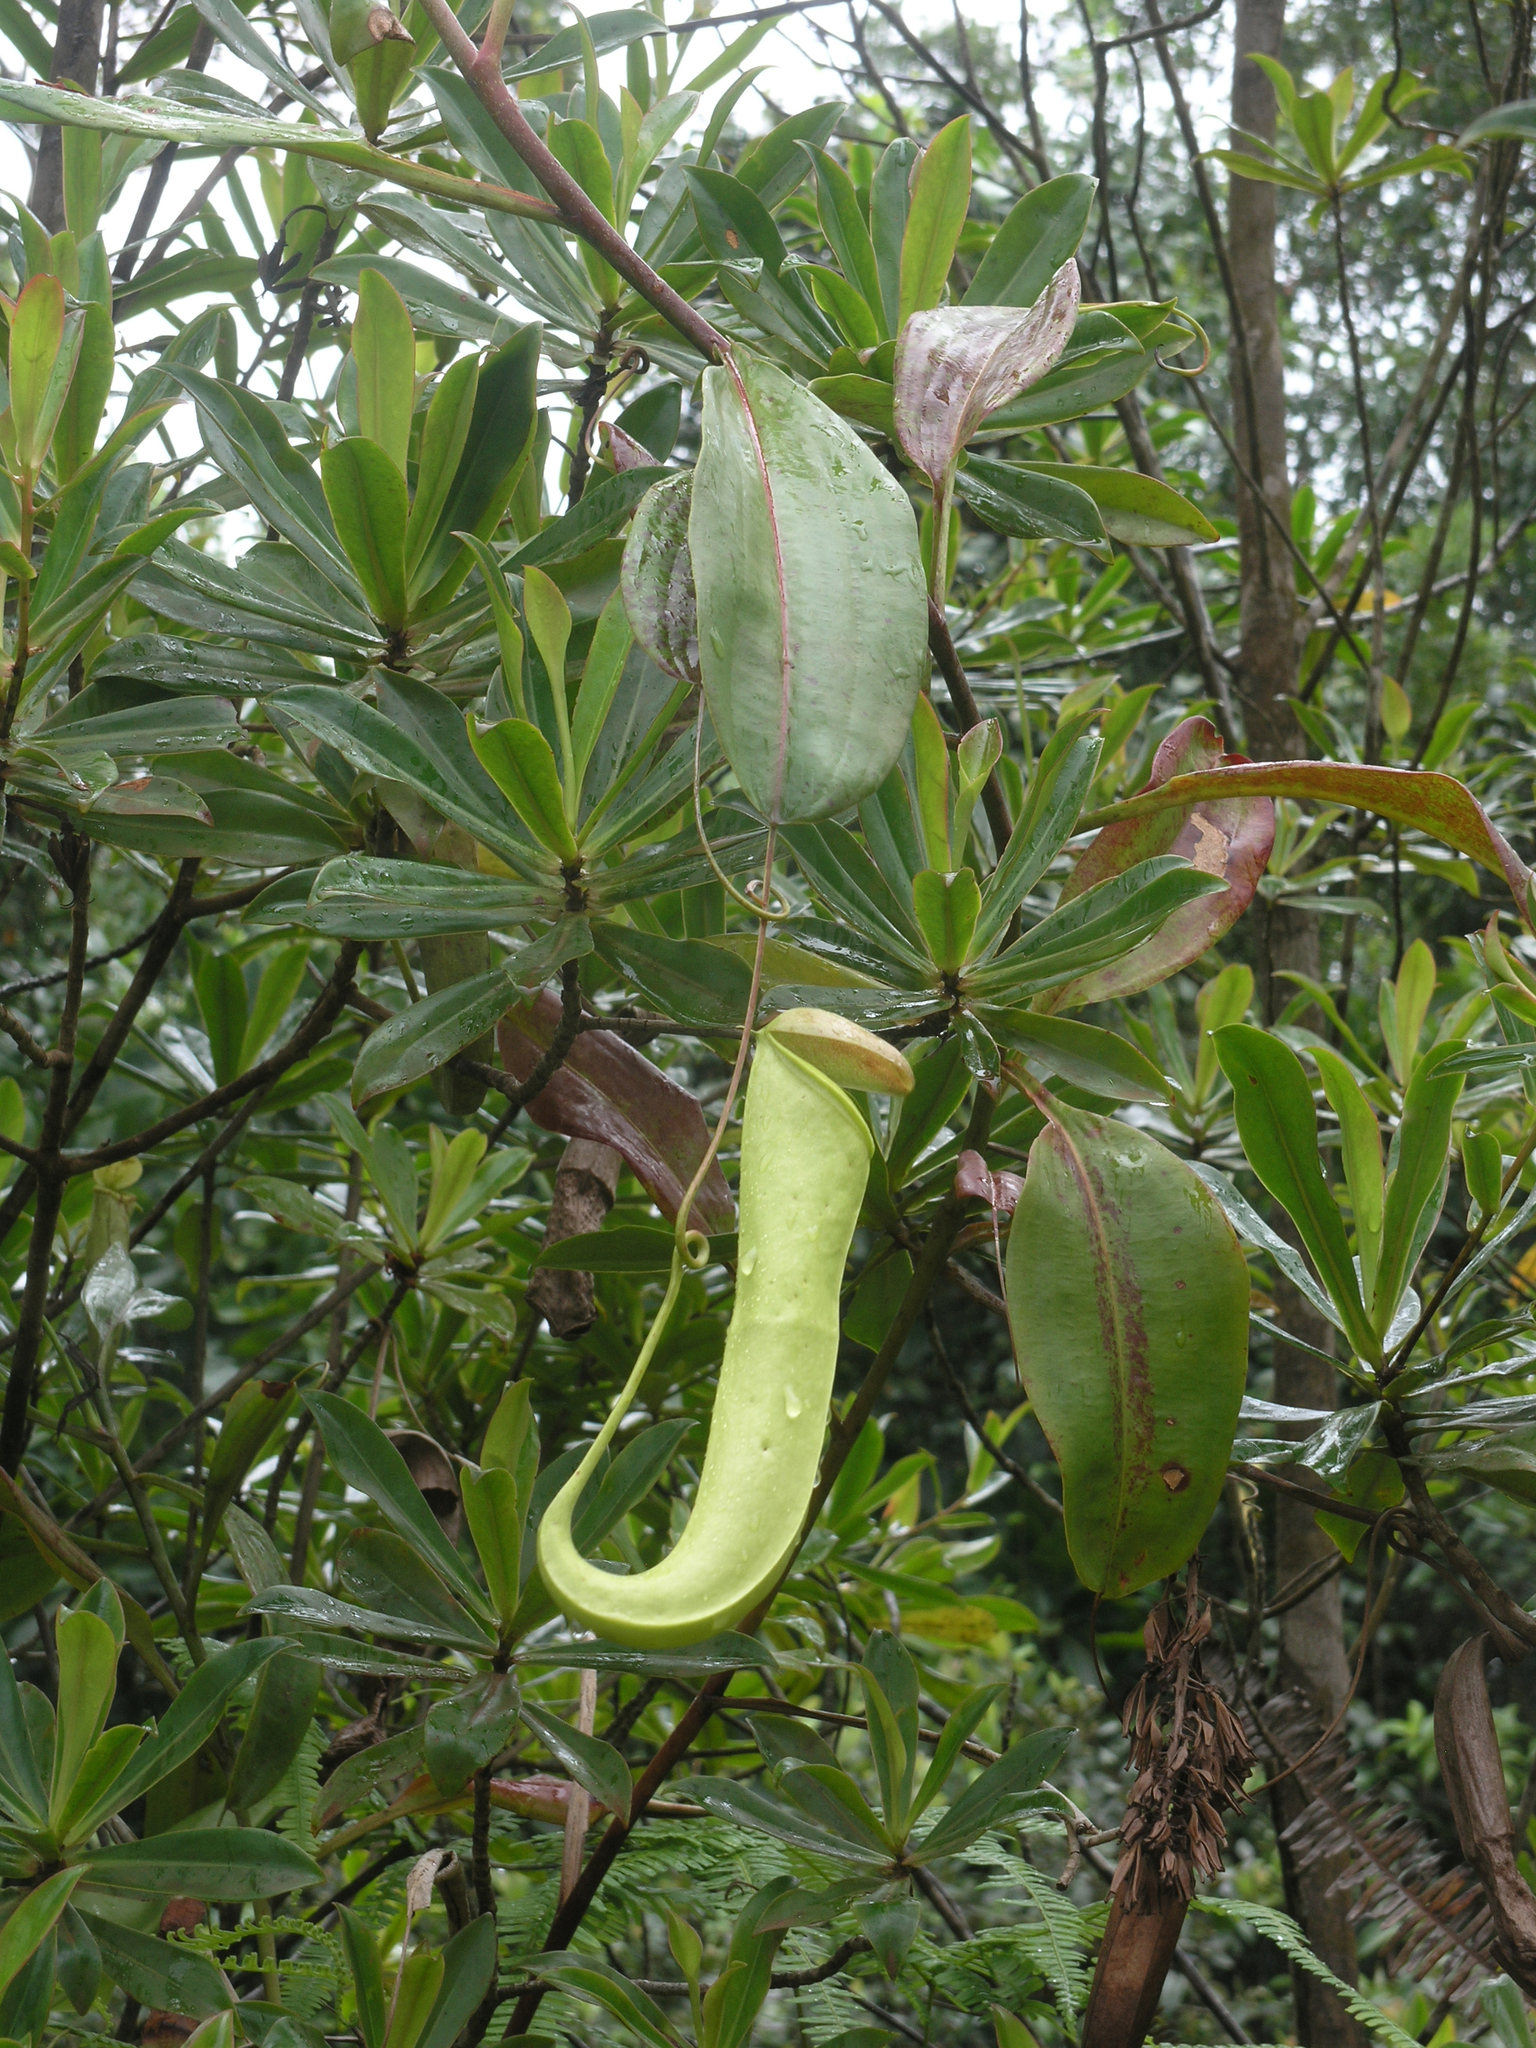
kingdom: Plantae
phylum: Tracheophyta
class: Magnoliopsida
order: Caryophyllales
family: Nepenthaceae
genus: Nepenthes
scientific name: Nepenthes mirabilis
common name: Tropical pitcherplant
